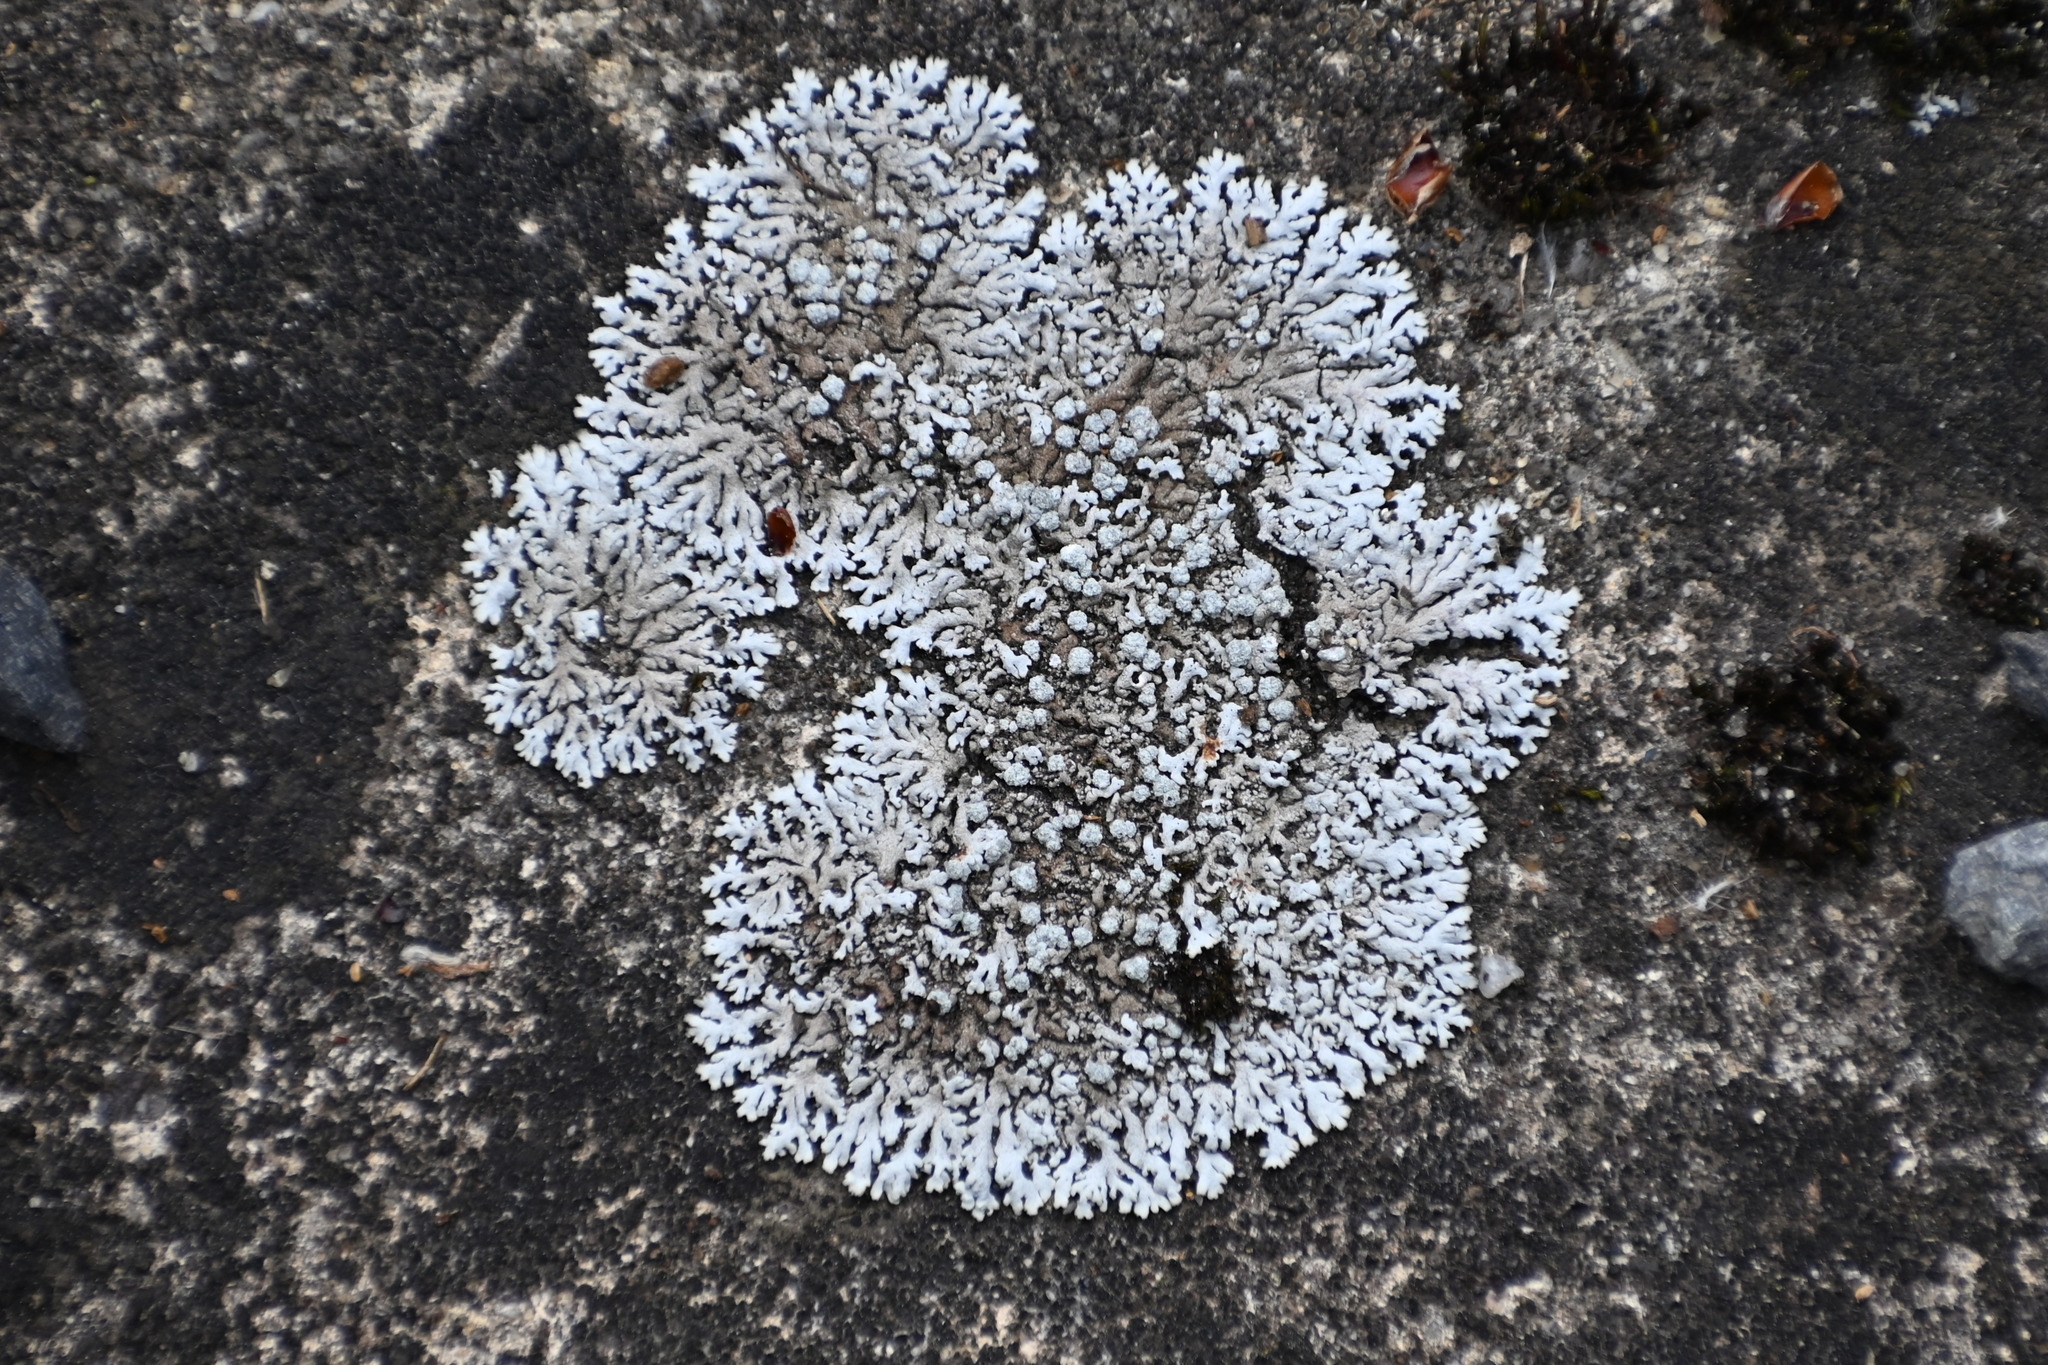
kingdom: Fungi
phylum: Ascomycota
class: Lecanoromycetes
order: Caliciales
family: Physciaceae
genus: Physcia
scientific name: Physcia caesia
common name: Blue-gray rosette lichen
